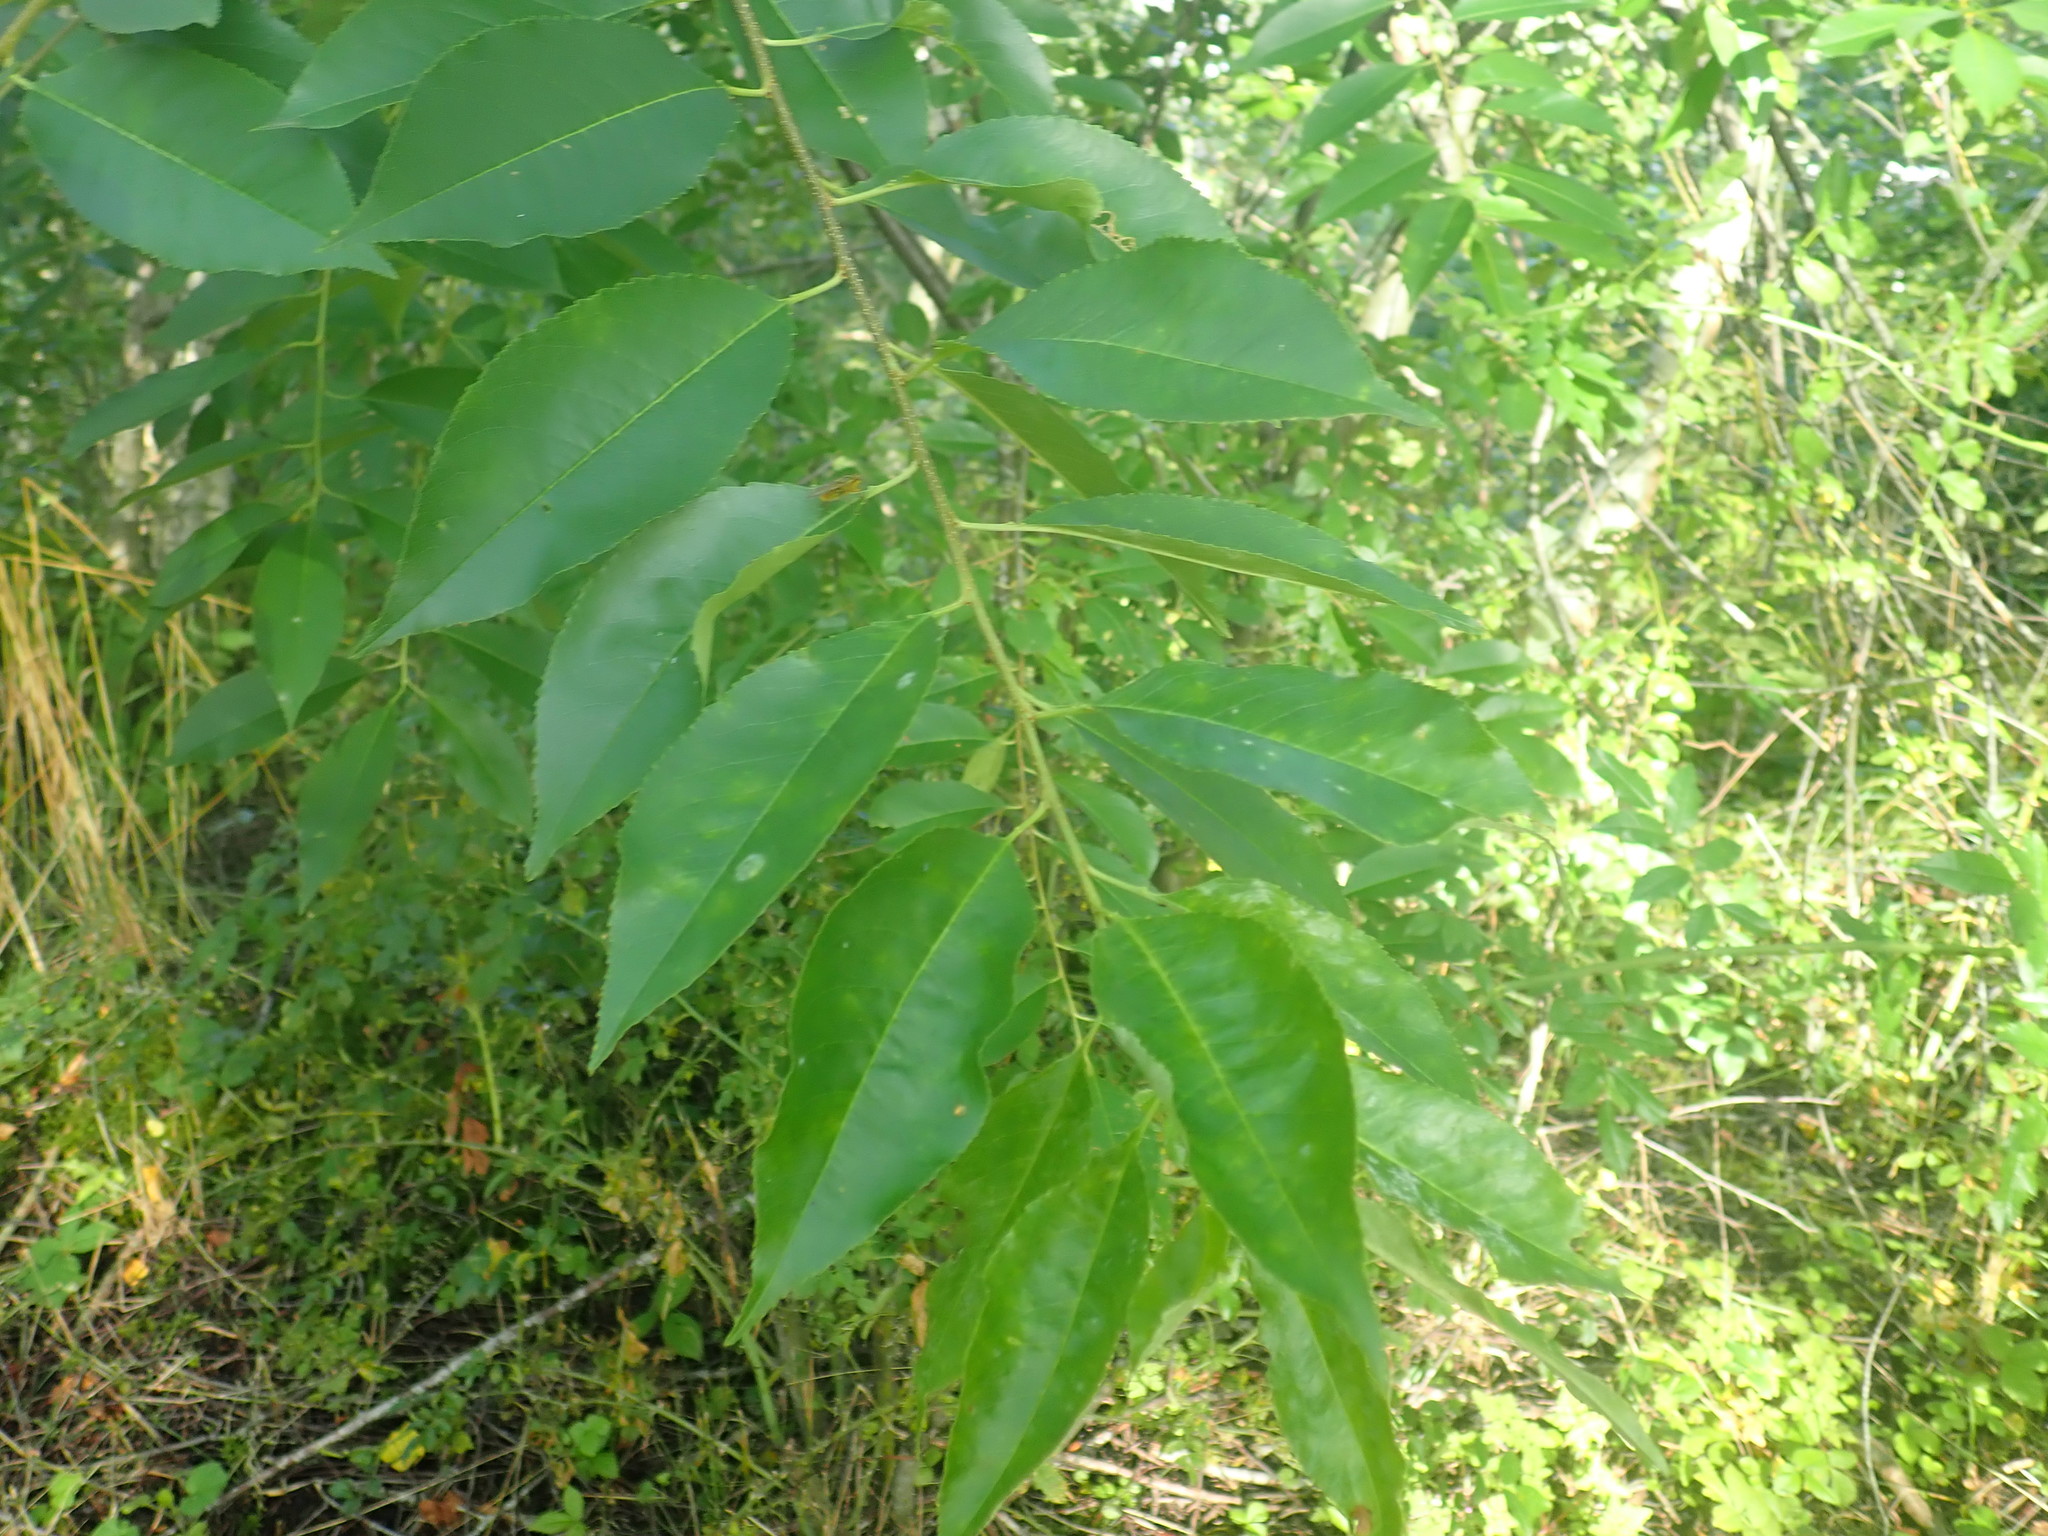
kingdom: Plantae
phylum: Tracheophyta
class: Magnoliopsida
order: Rosales
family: Rosaceae
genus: Prunus
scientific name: Prunus serotina
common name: Black cherry
